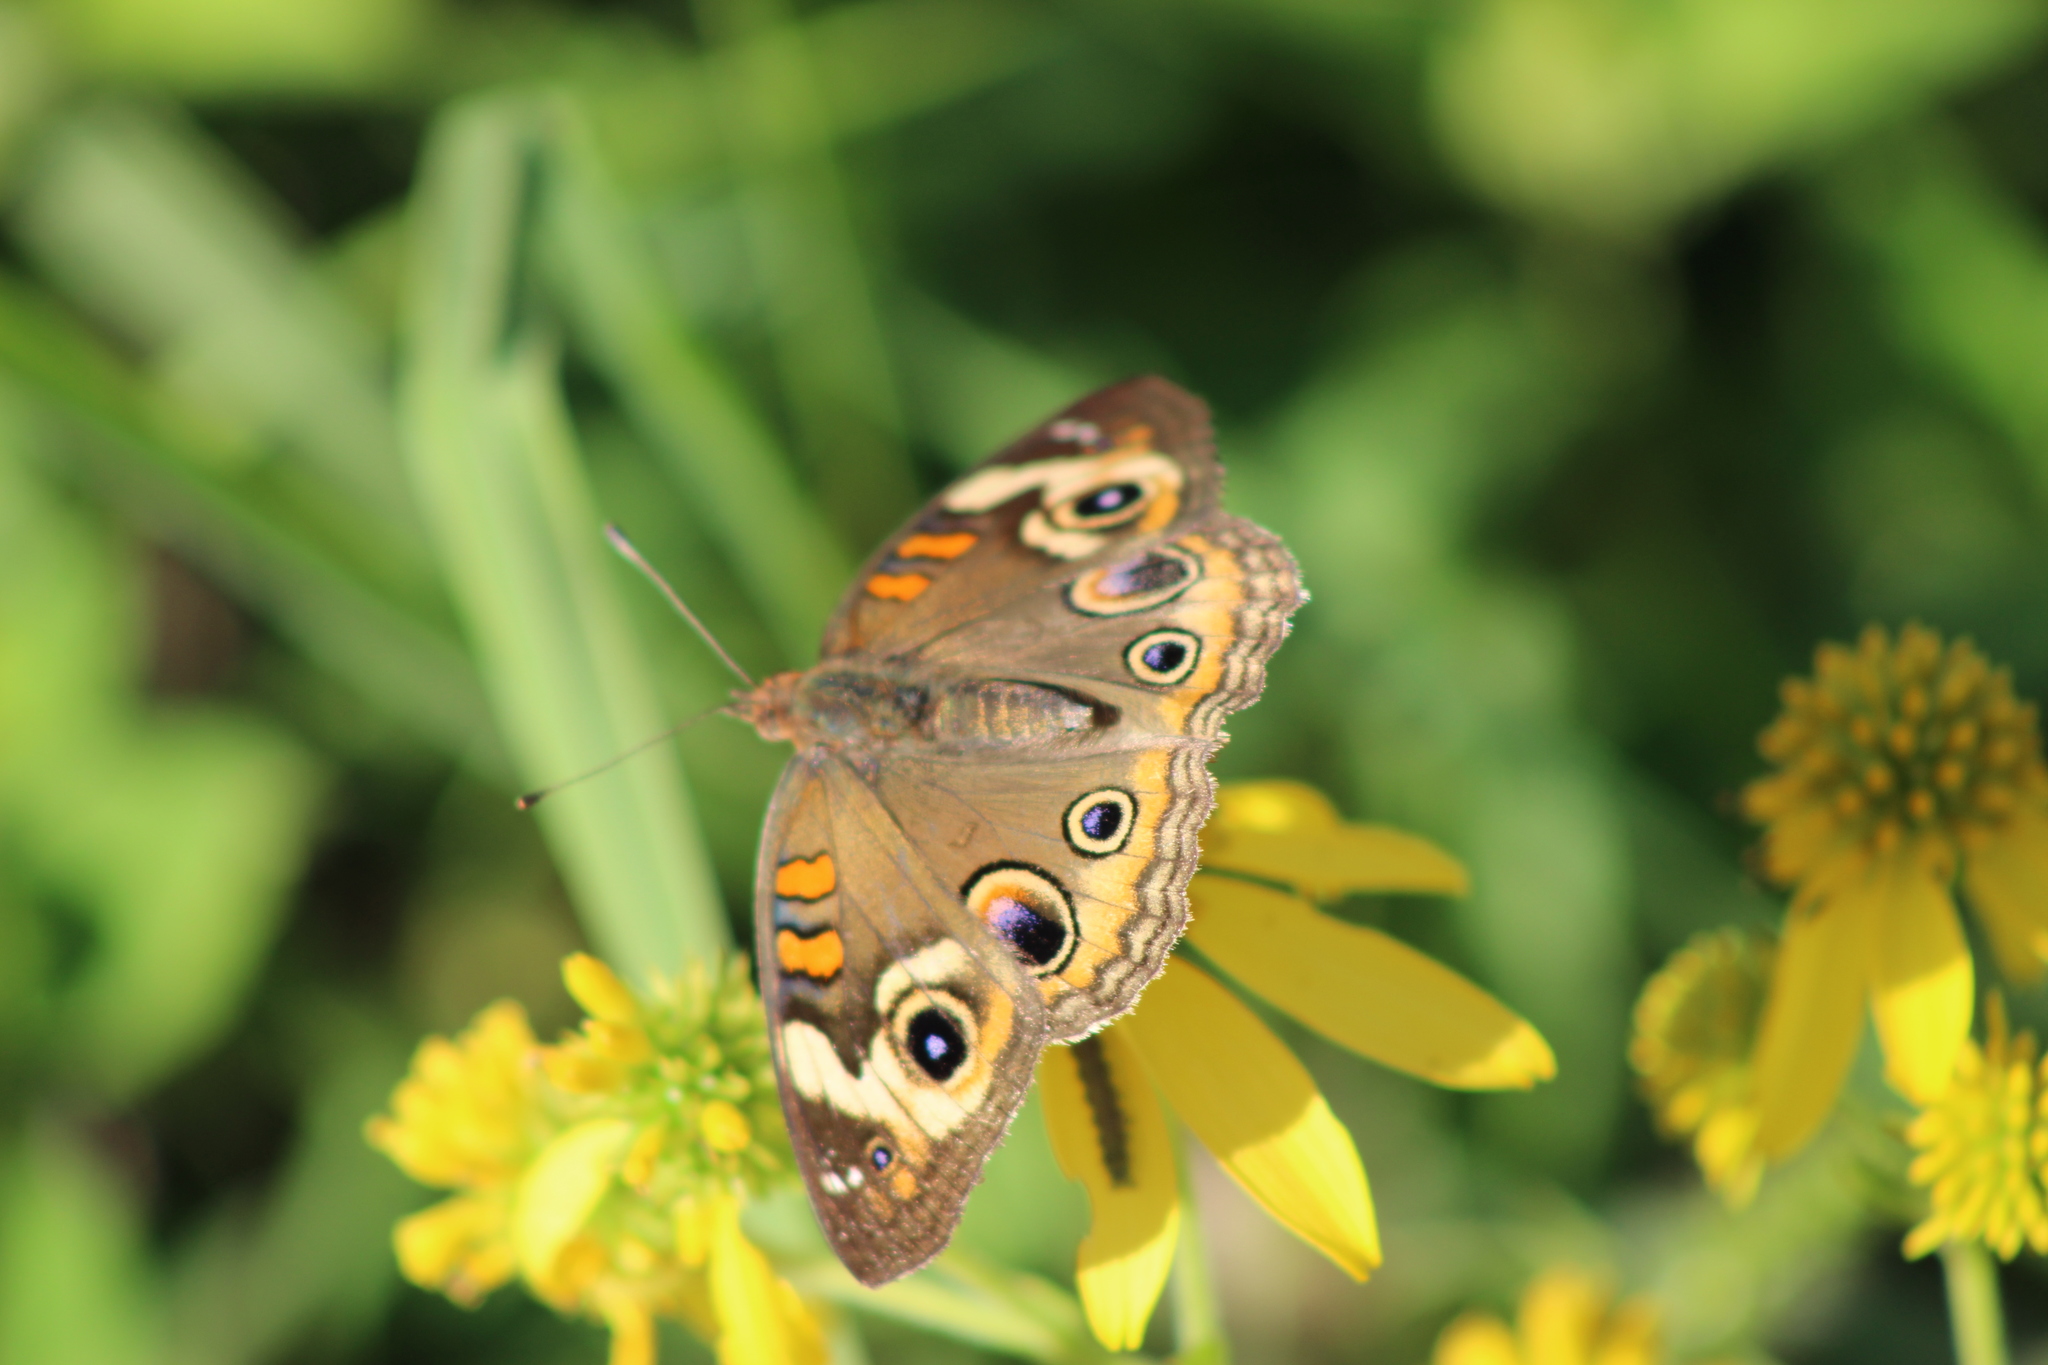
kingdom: Animalia
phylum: Arthropoda
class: Insecta
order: Lepidoptera
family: Nymphalidae
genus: Junonia
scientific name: Junonia coenia
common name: Common buckeye
